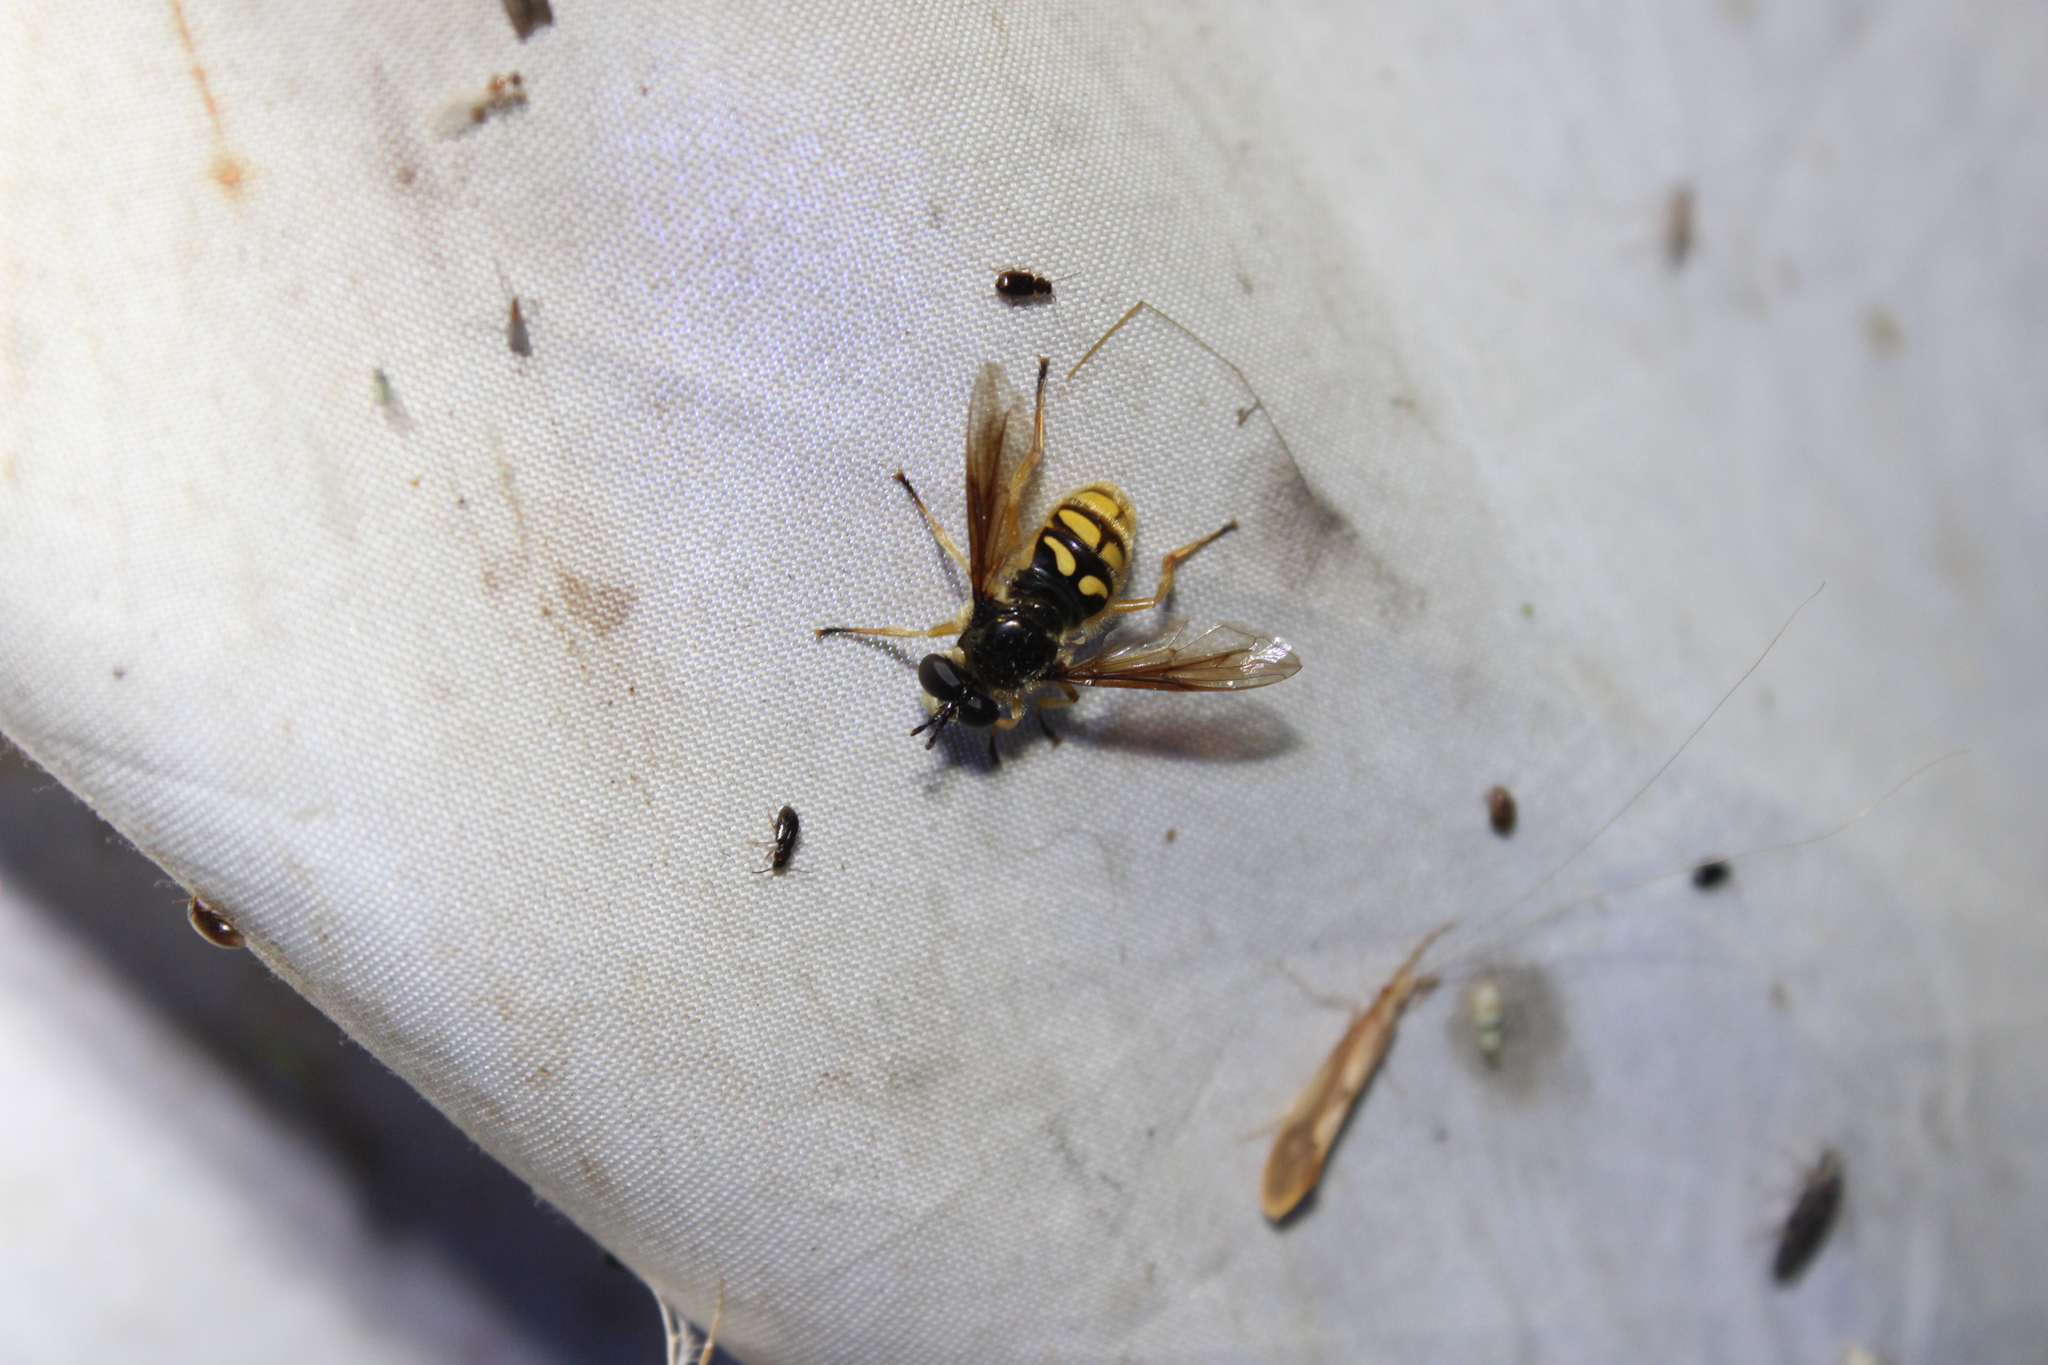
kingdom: Animalia
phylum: Arthropoda
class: Insecta
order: Diptera
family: Syrphidae
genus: Somula
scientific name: Somula decora
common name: Spotted wood fly
